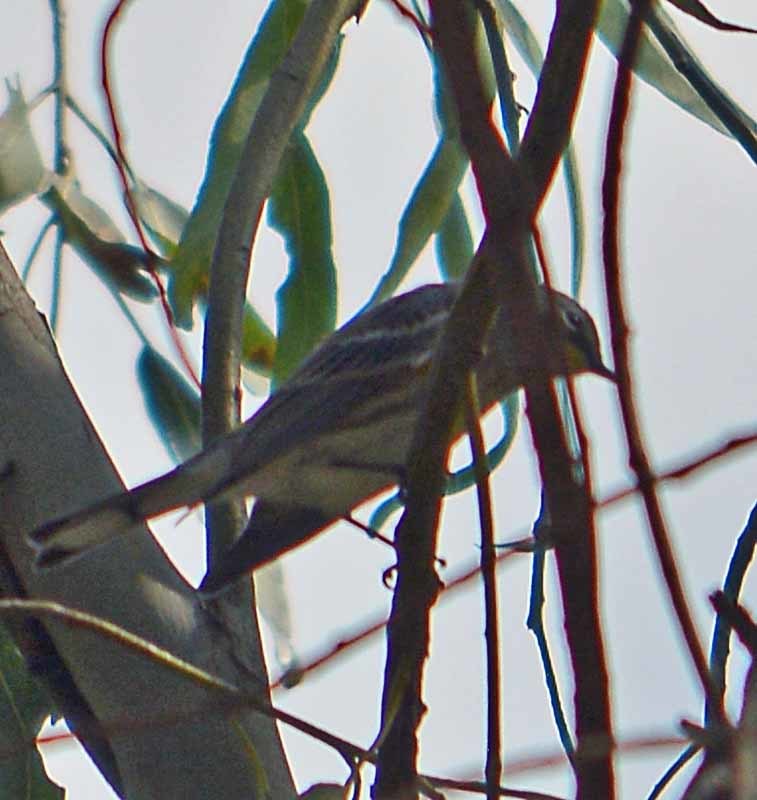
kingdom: Animalia
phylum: Chordata
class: Aves
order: Passeriformes
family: Parulidae
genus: Setophaga
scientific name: Setophaga coronata
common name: Myrtle warbler
